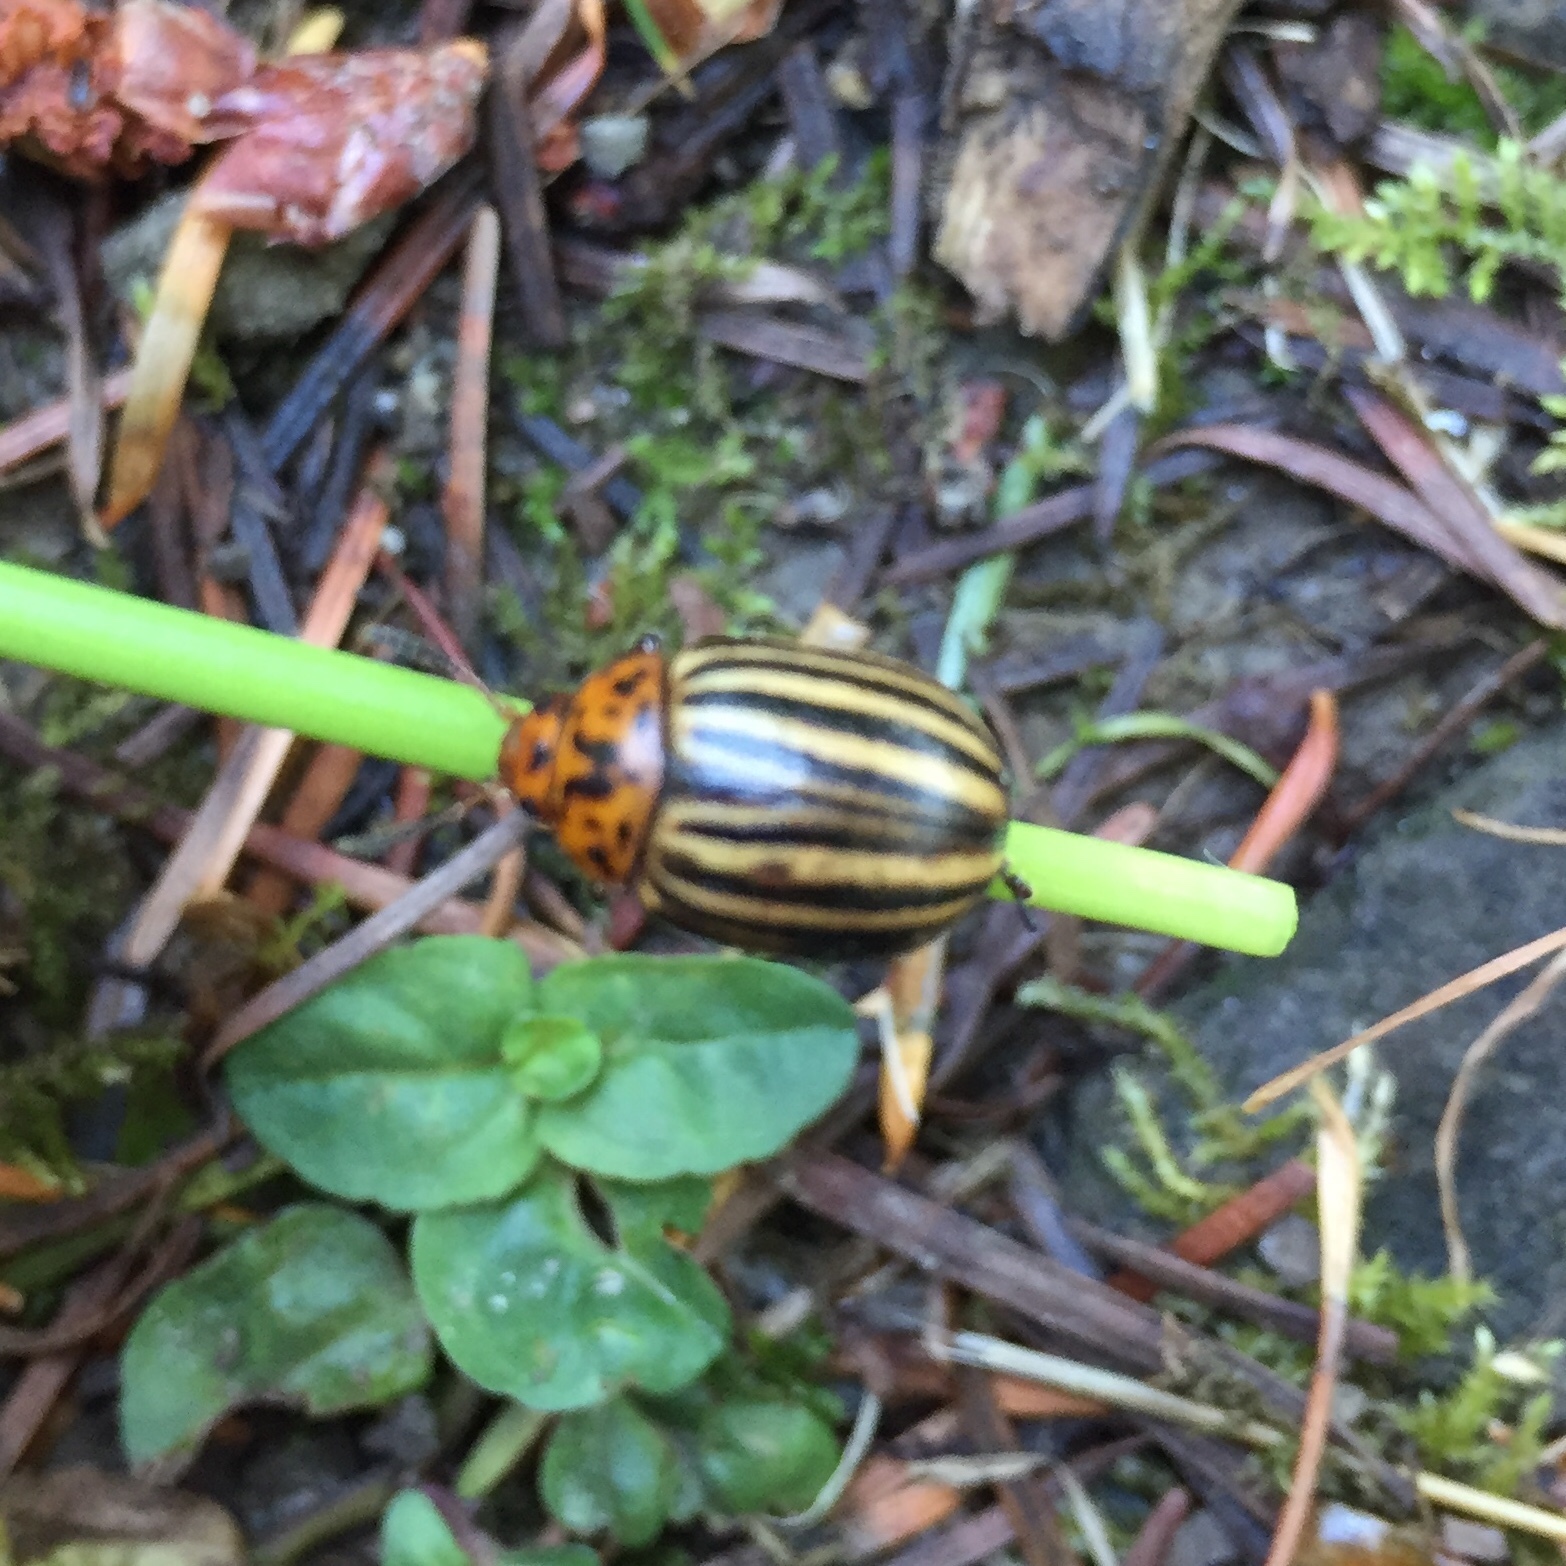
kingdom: Animalia
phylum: Arthropoda
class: Insecta
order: Coleoptera
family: Chrysomelidae
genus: Leptinotarsa
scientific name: Leptinotarsa decemlineata
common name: Colorado potato beetle
